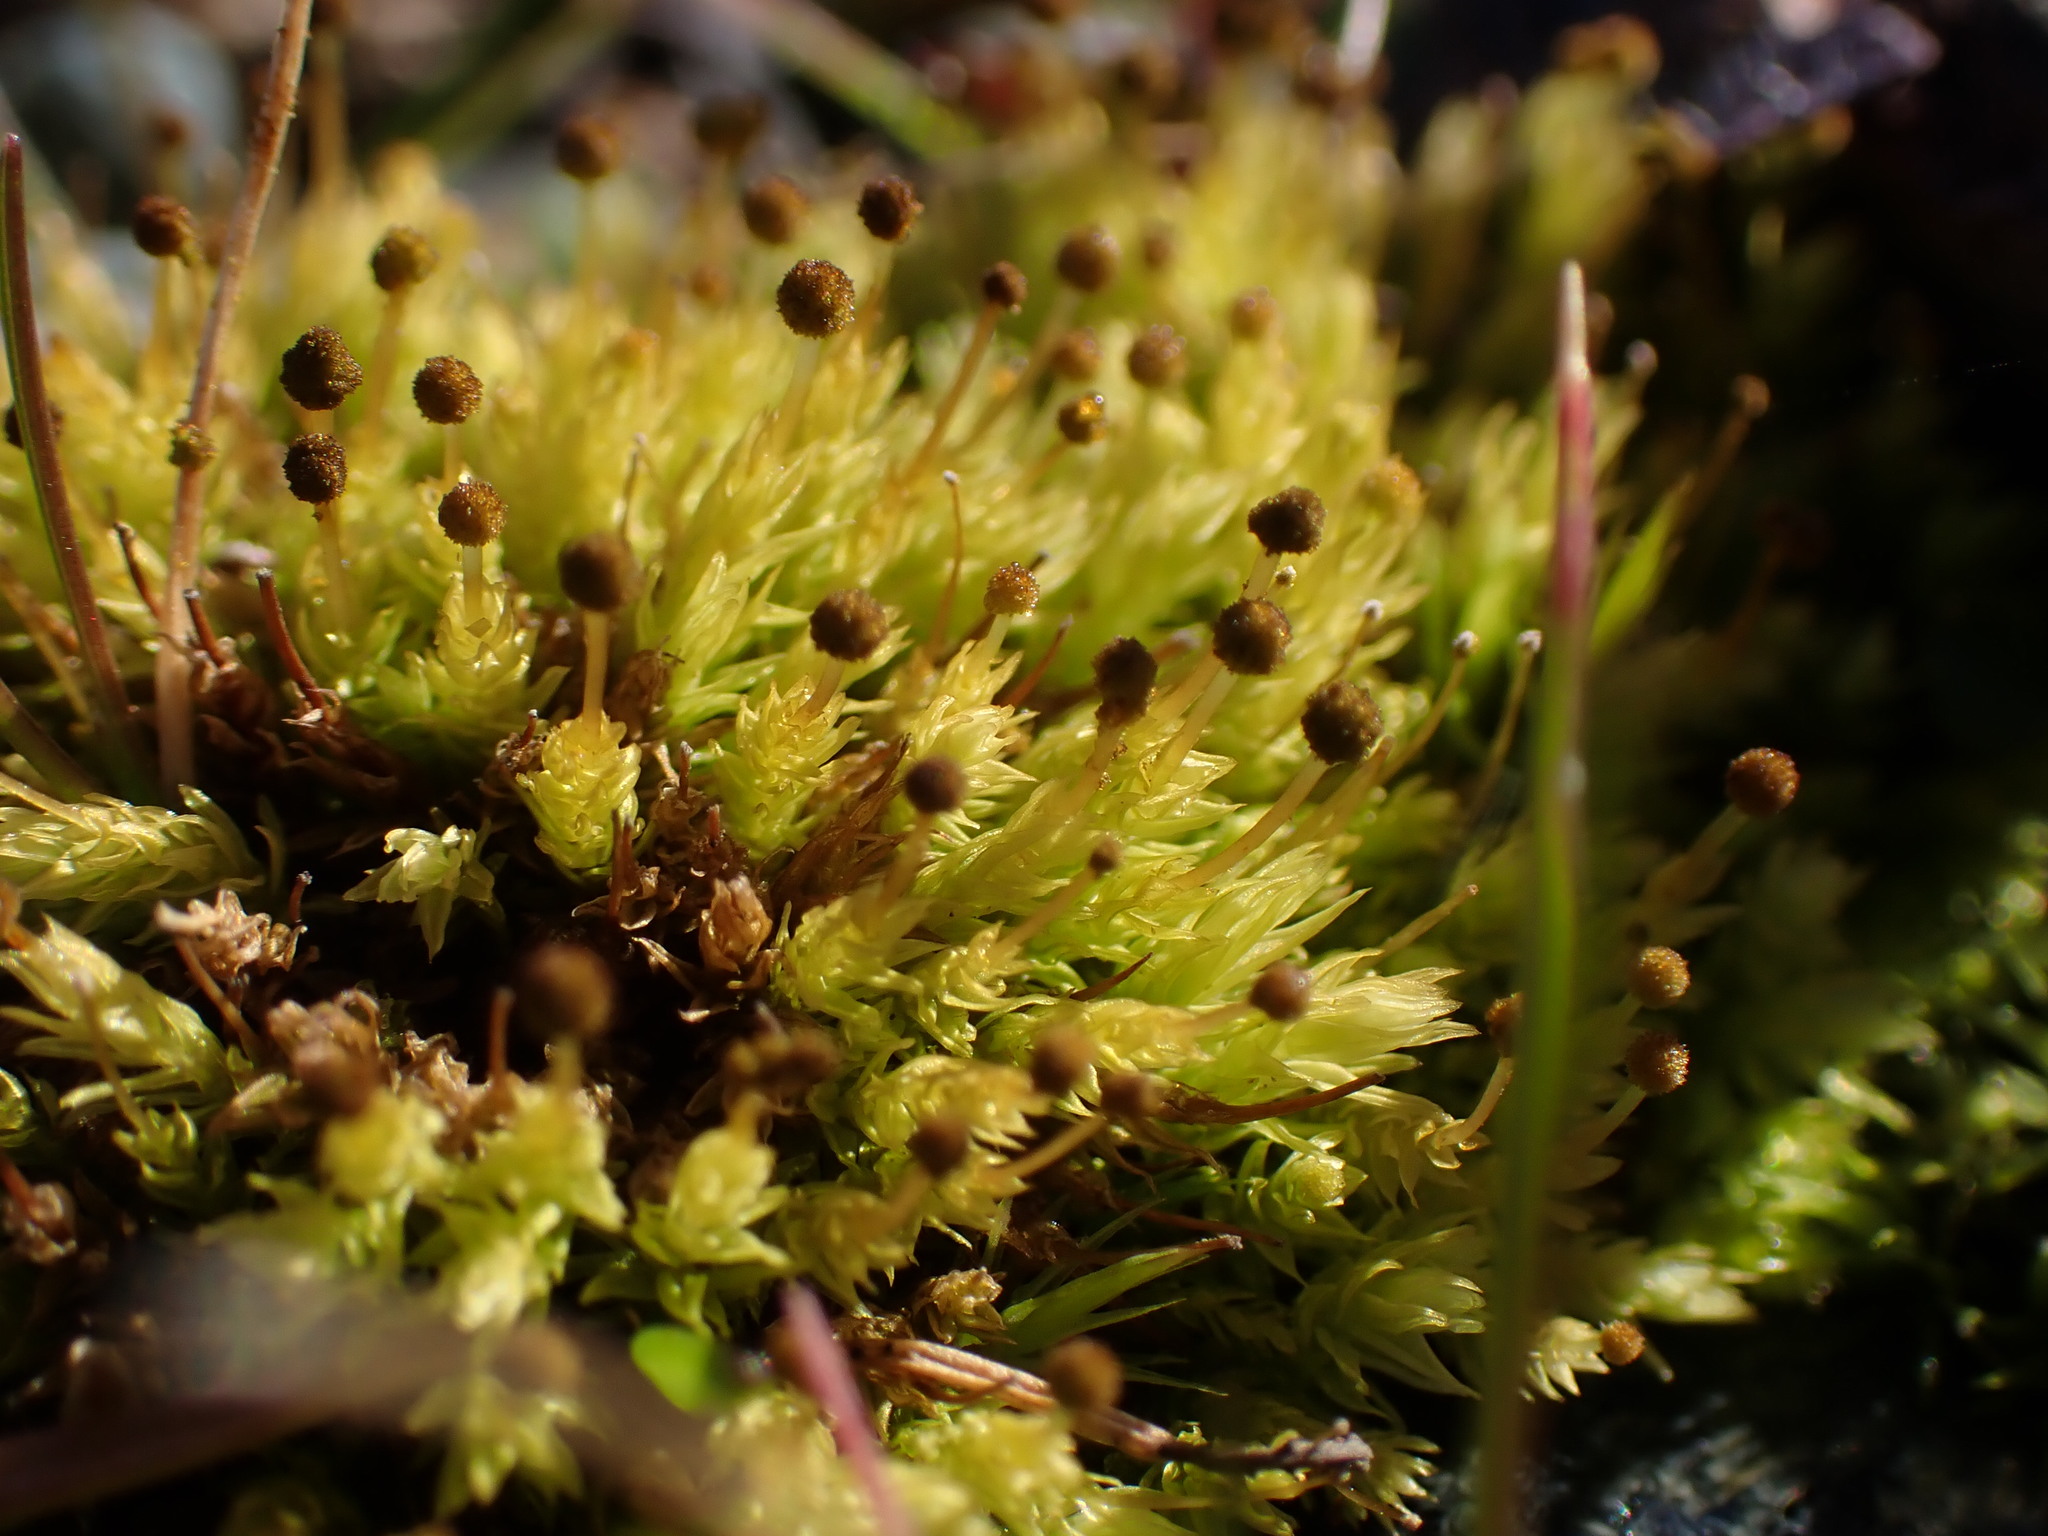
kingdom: Plantae
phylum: Bryophyta
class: Bryopsida
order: Aulacomniales
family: Aulacomniaceae
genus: Aulacomnium
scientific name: Aulacomnium androgynum
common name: Little groove moss
